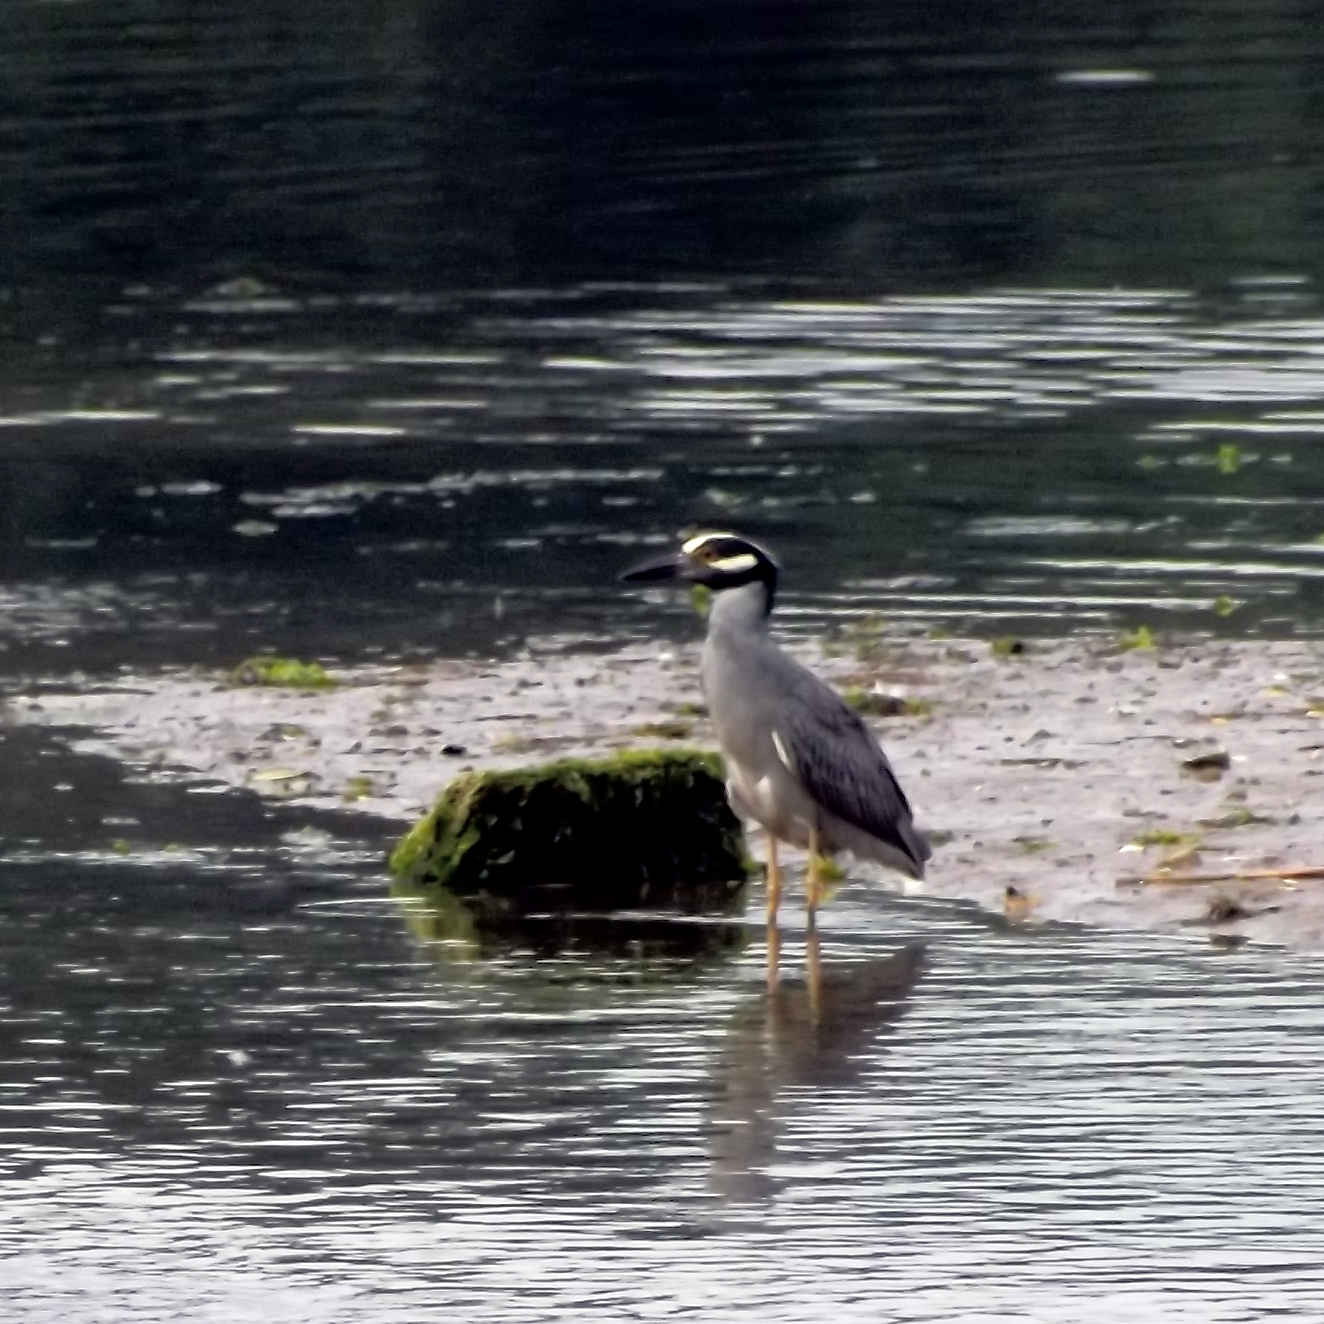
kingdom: Animalia
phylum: Chordata
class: Aves
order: Pelecaniformes
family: Ardeidae
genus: Nyctanassa
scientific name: Nyctanassa violacea
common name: Yellow-crowned night heron
